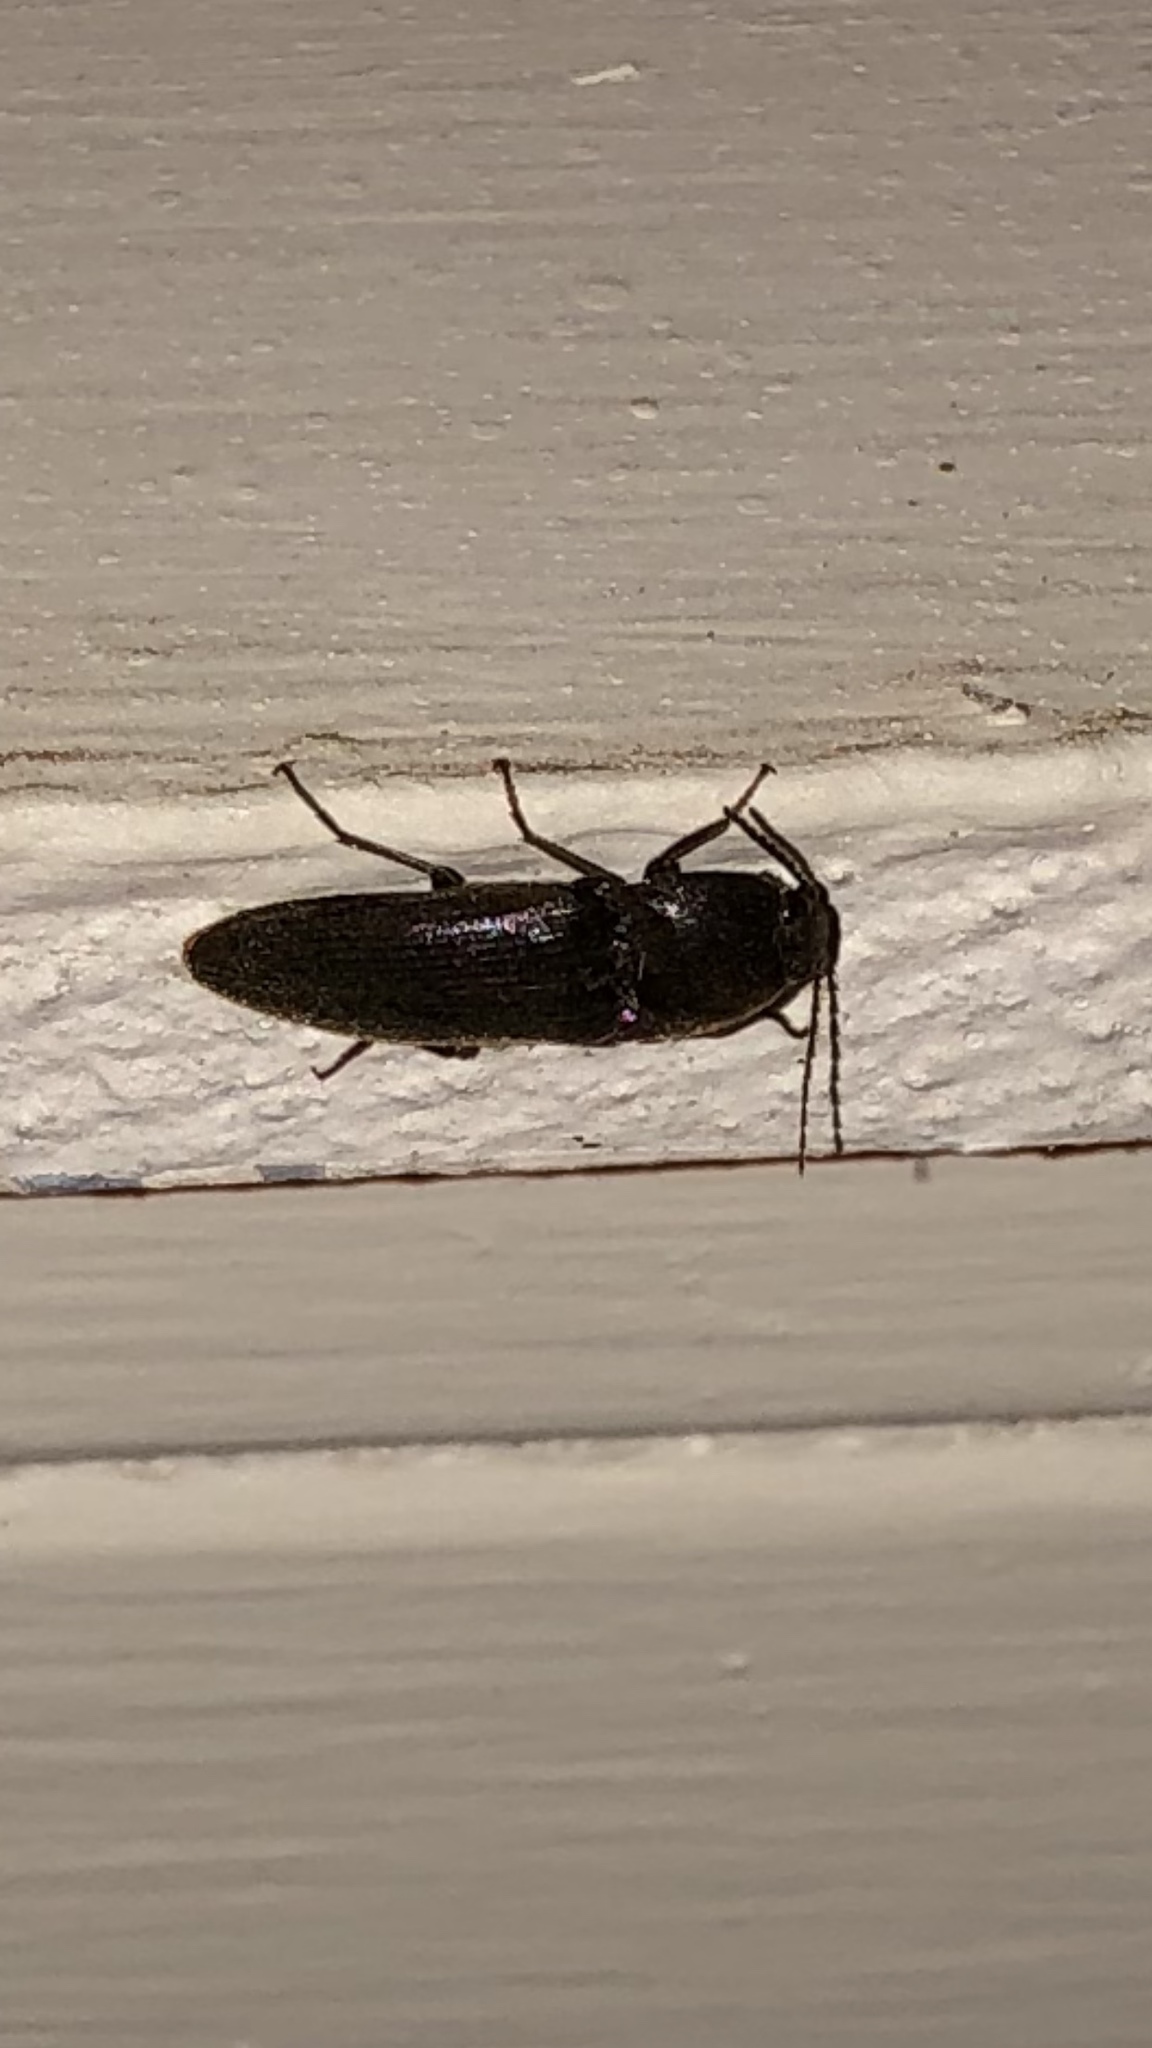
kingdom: Animalia
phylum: Arthropoda
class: Insecta
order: Coleoptera
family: Elateridae
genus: Melanotus
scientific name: Melanotus
